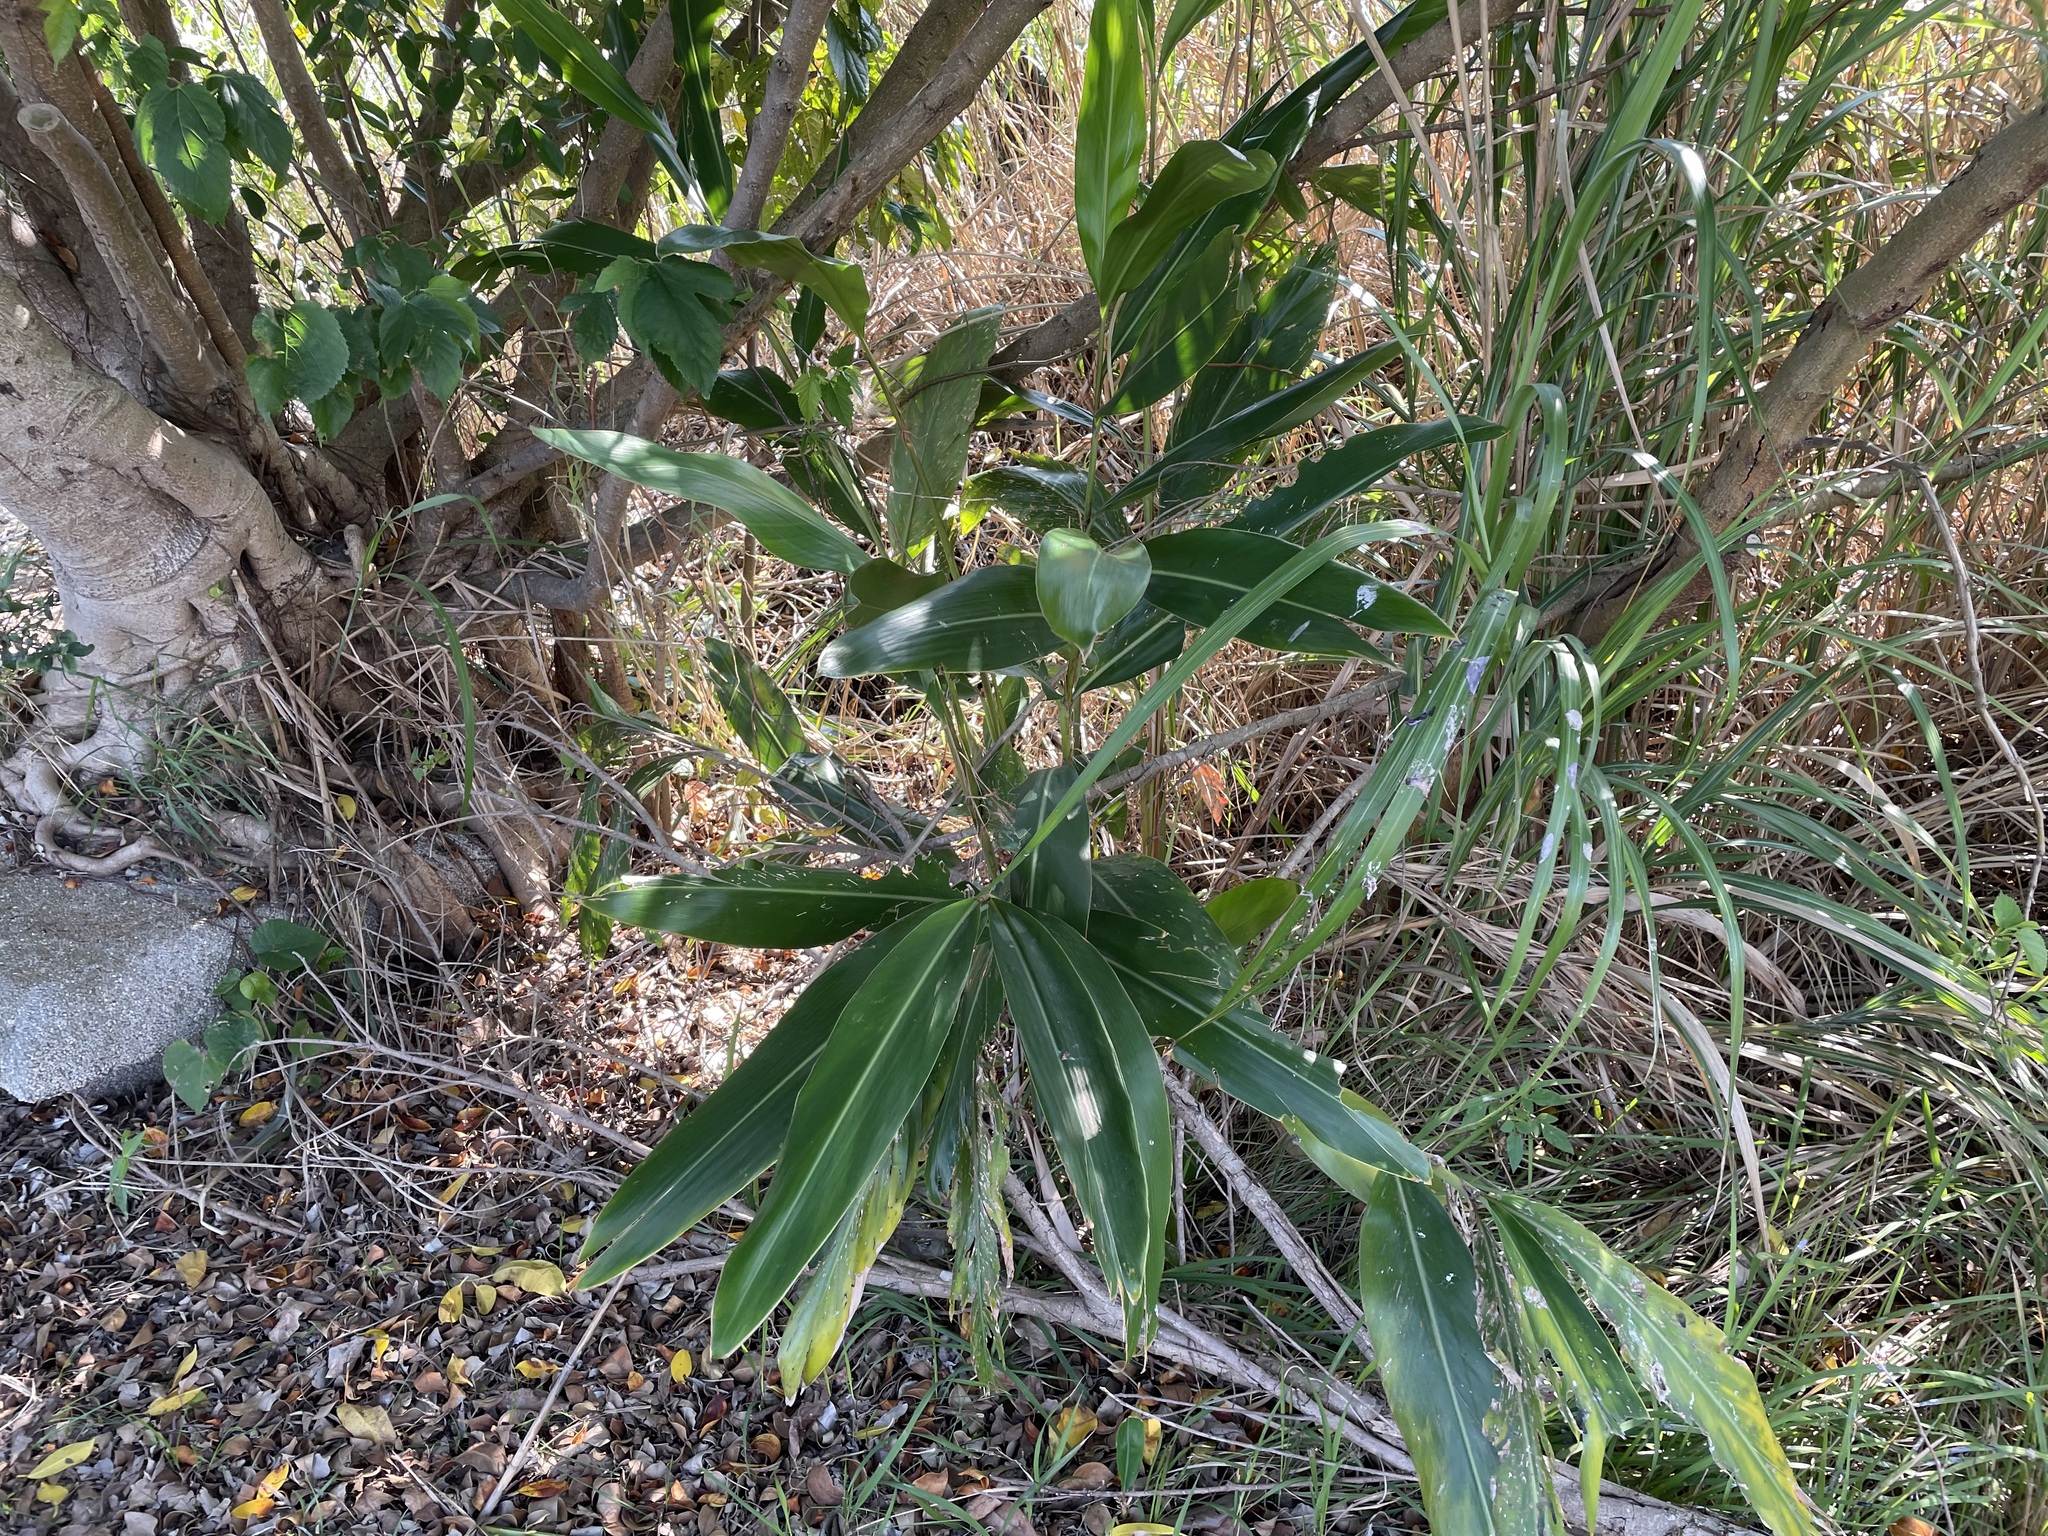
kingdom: Plantae
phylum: Tracheophyta
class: Liliopsida
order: Zingiberales
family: Zingiberaceae
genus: Alpinia
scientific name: Alpinia zerumbet
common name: Shellplant
